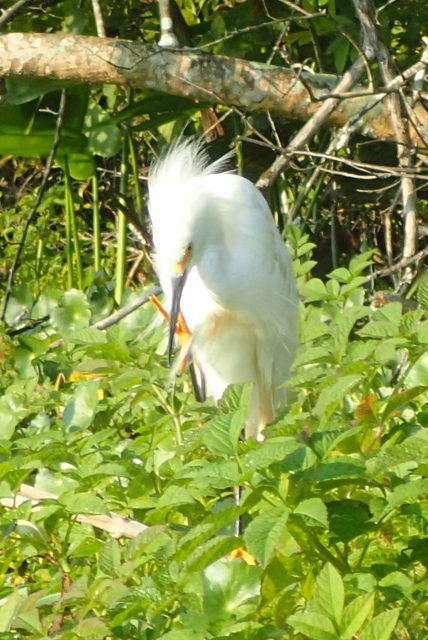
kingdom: Animalia
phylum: Chordata
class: Aves
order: Pelecaniformes
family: Ardeidae
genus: Egretta
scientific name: Egretta thula
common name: Snowy egret
